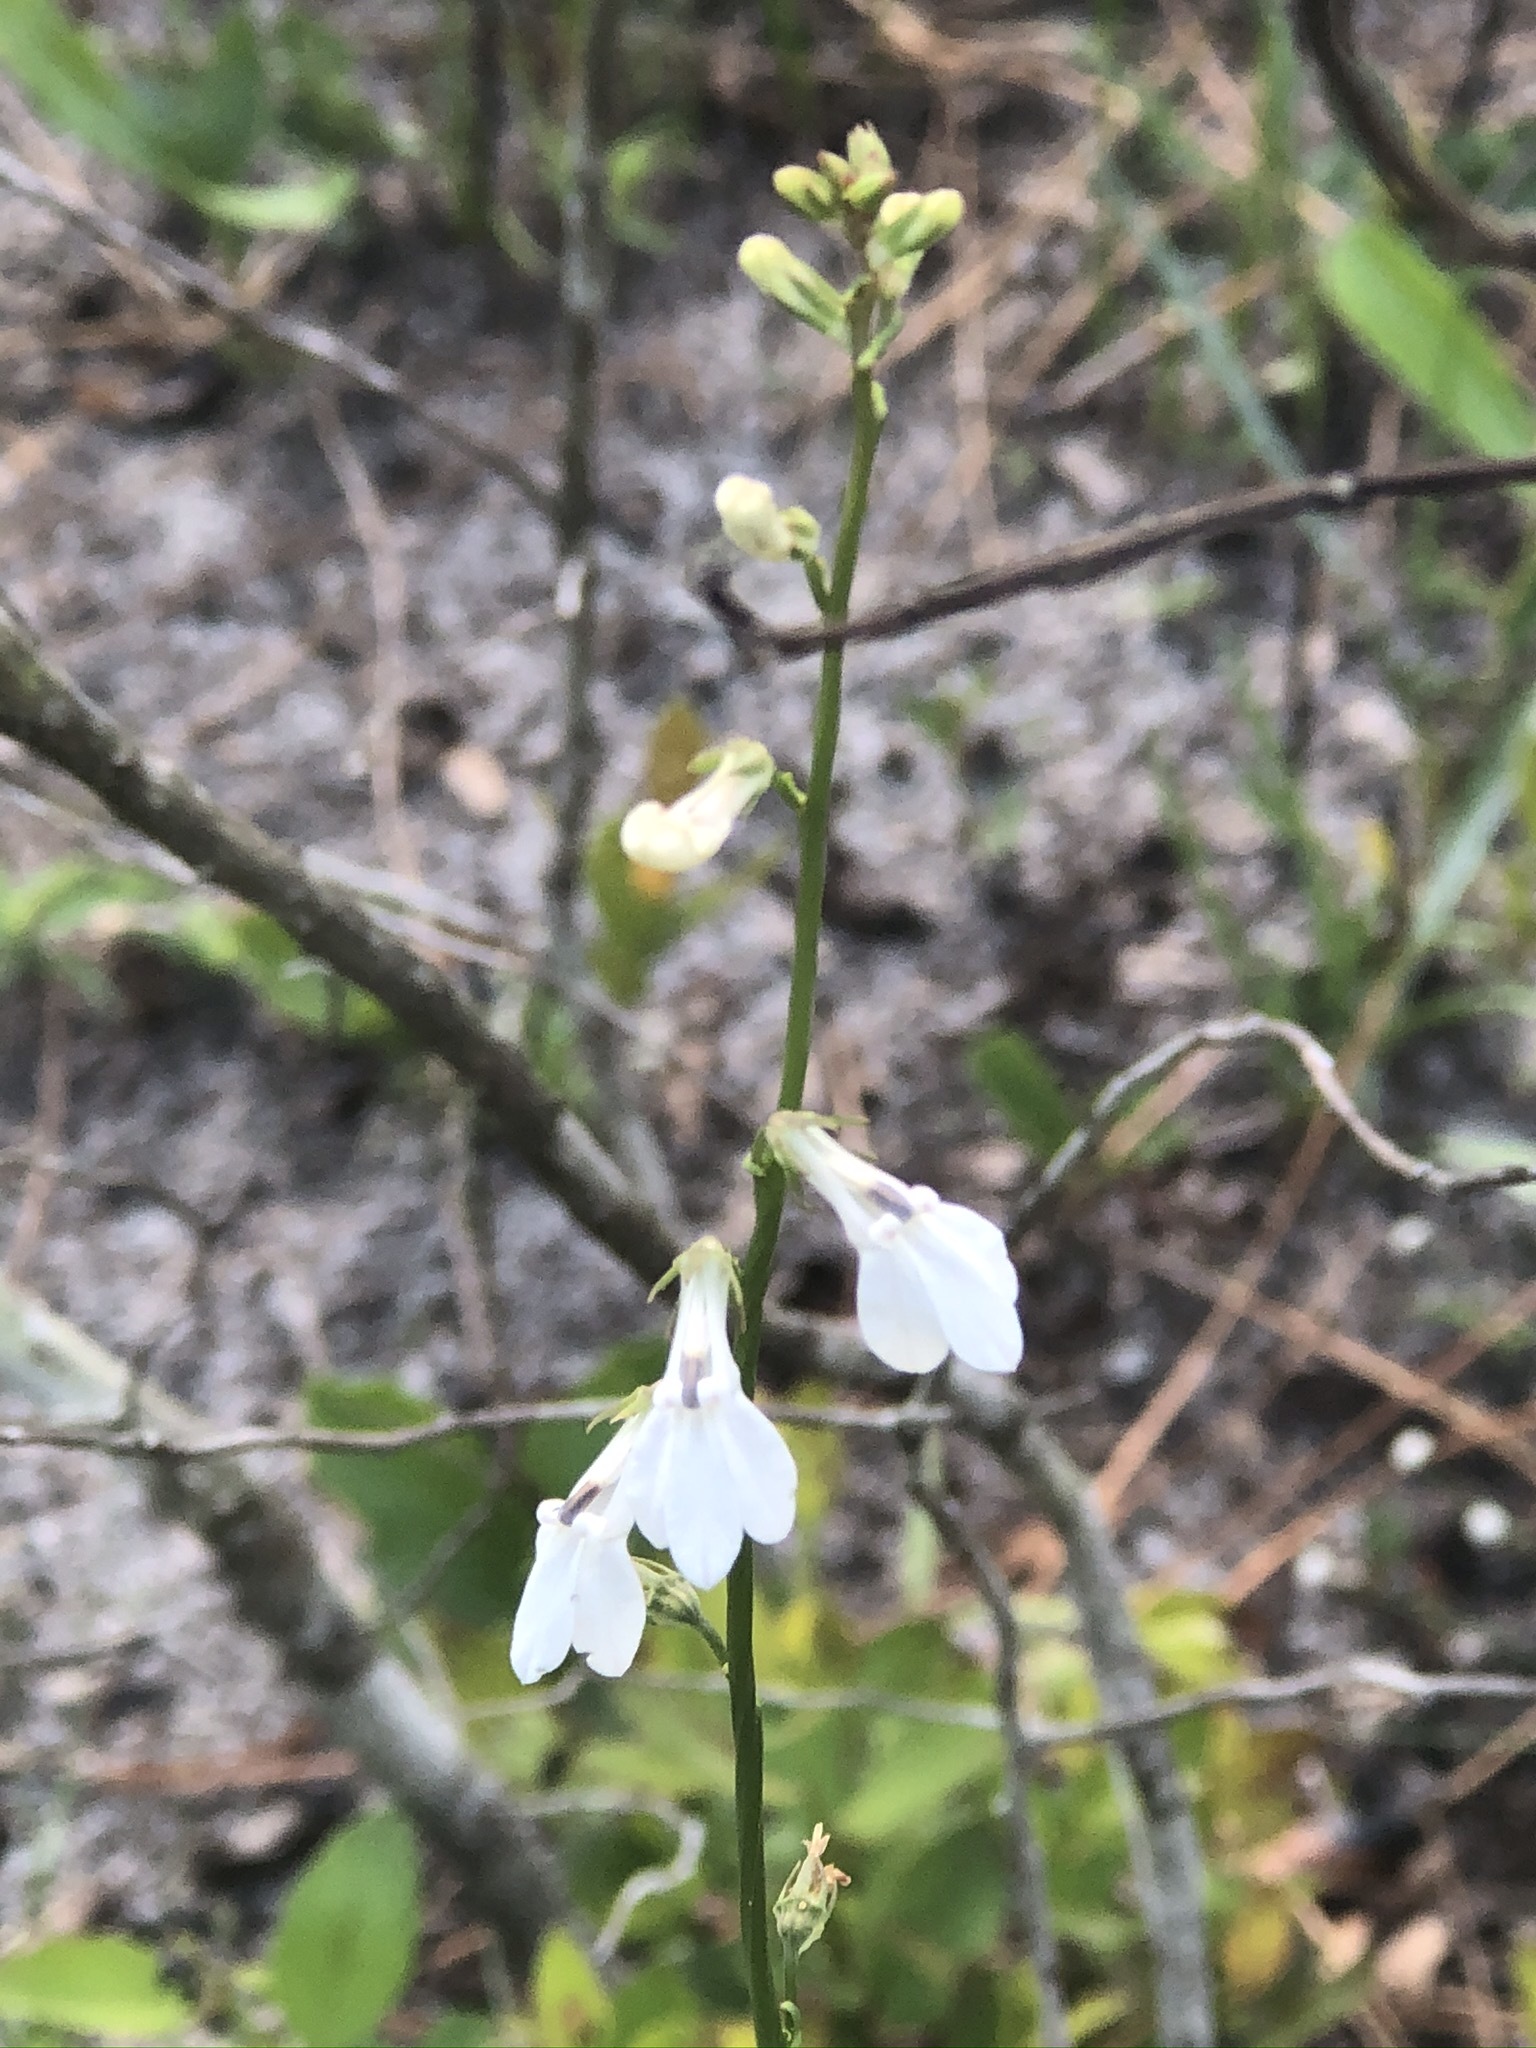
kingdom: Plantae
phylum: Tracheophyta
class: Magnoliopsida
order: Asterales
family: Campanulaceae
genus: Lobelia
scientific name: Lobelia paludosa
